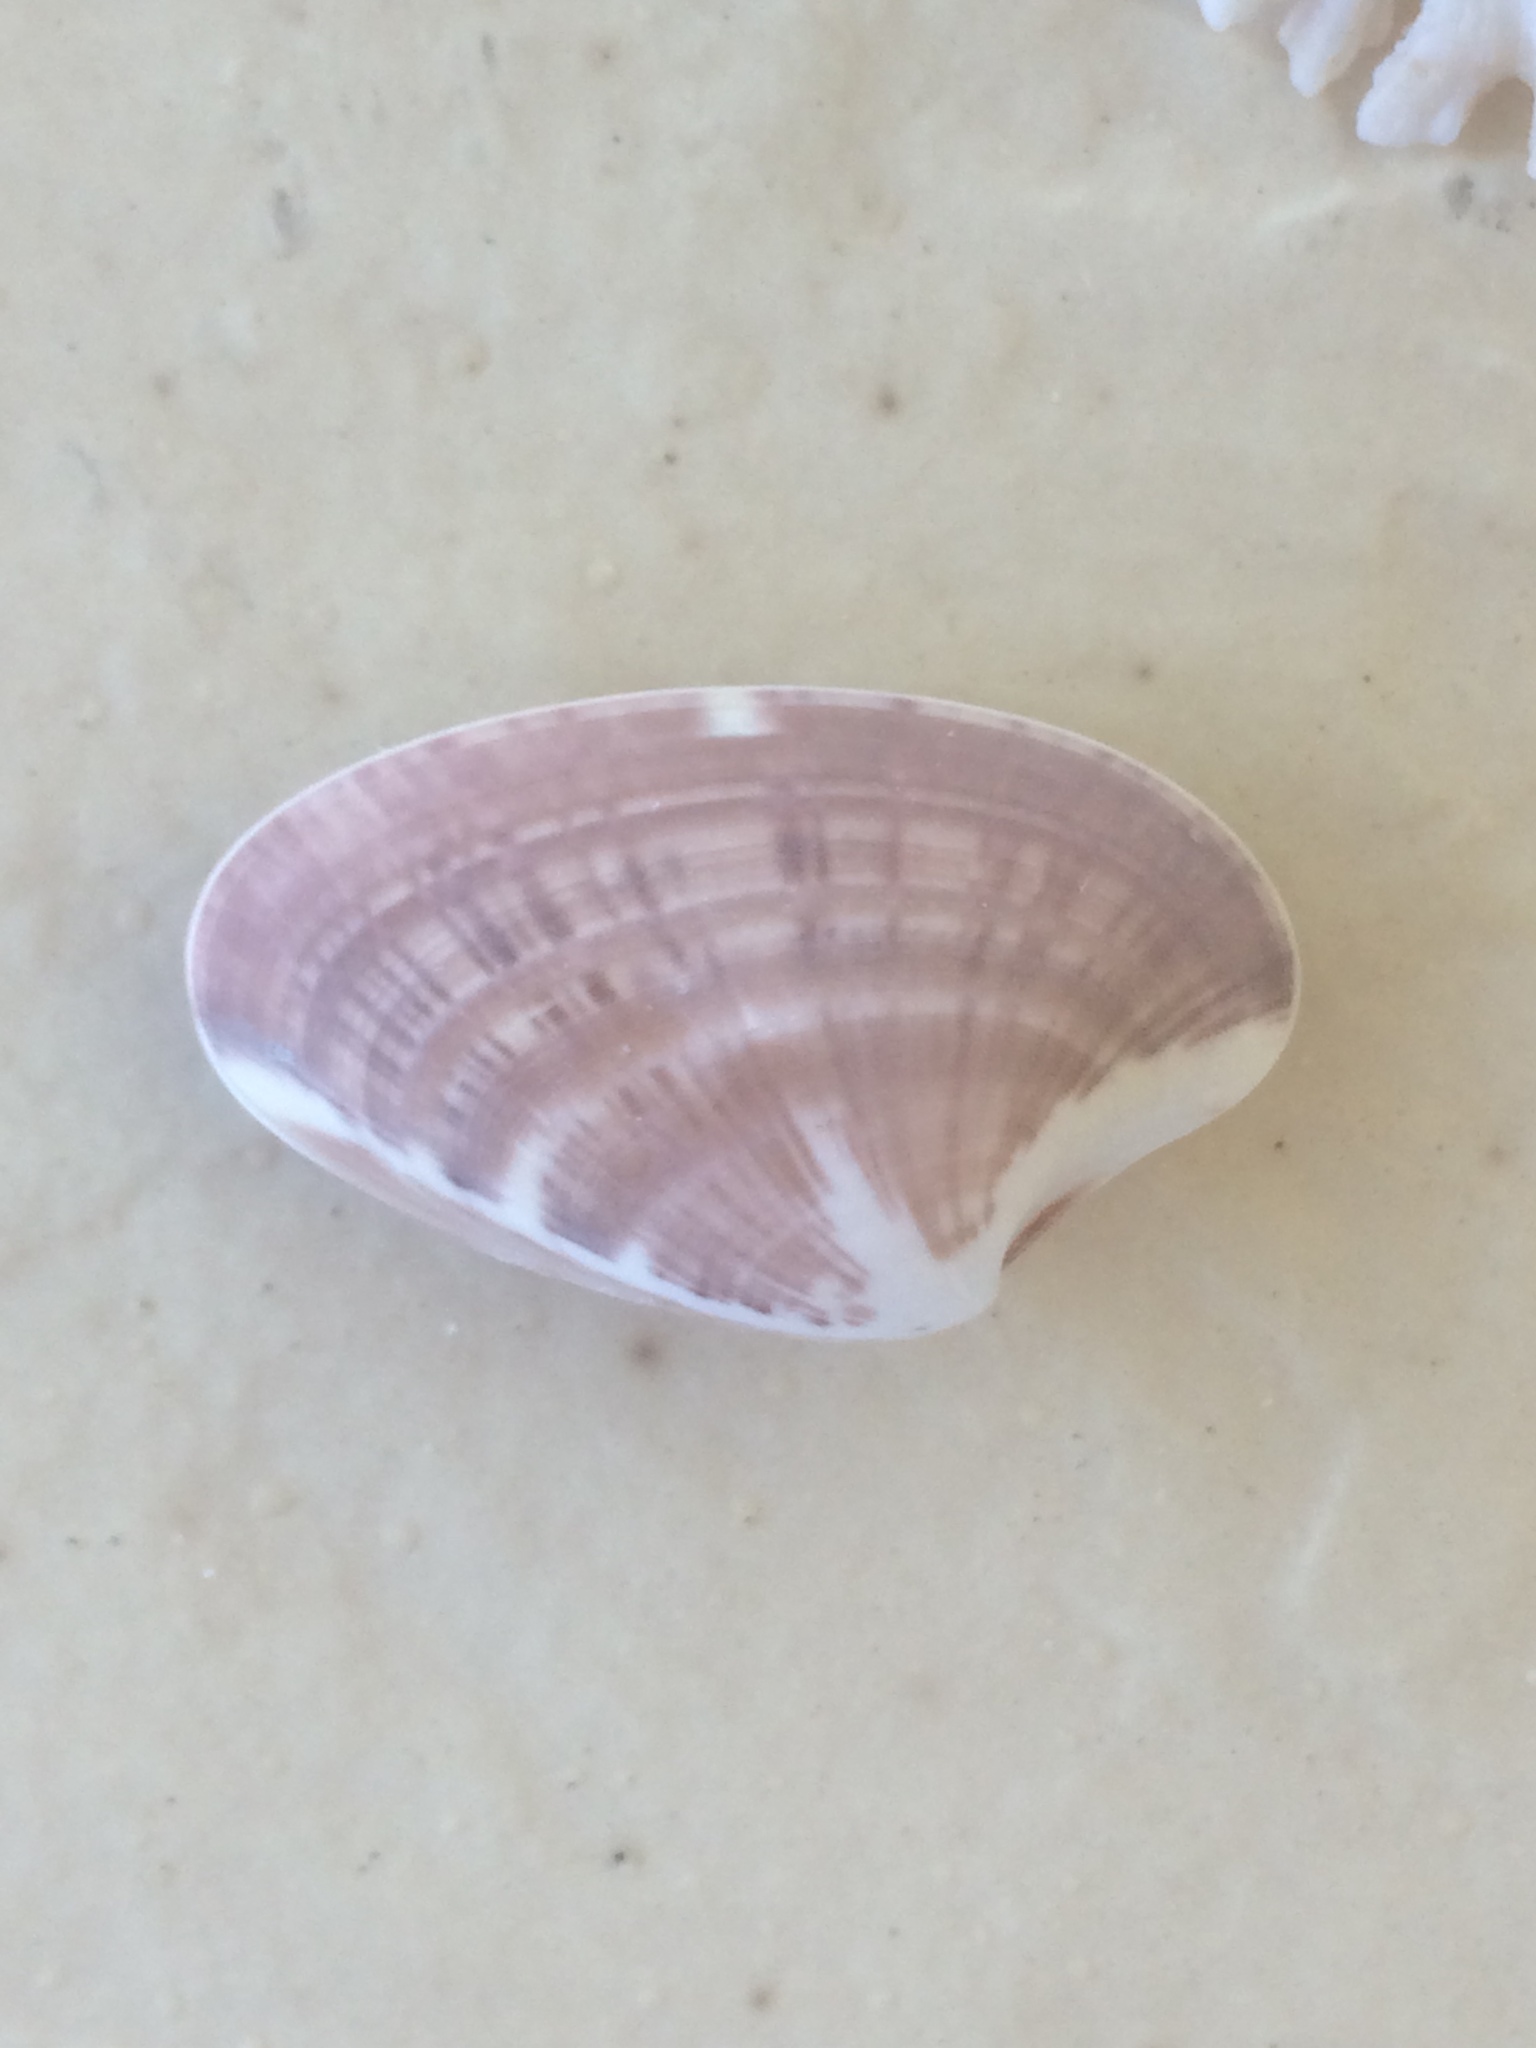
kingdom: Animalia
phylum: Mollusca
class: Bivalvia
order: Venerida
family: Veneridae
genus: Macrocallista
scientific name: Macrocallista nimbosa
